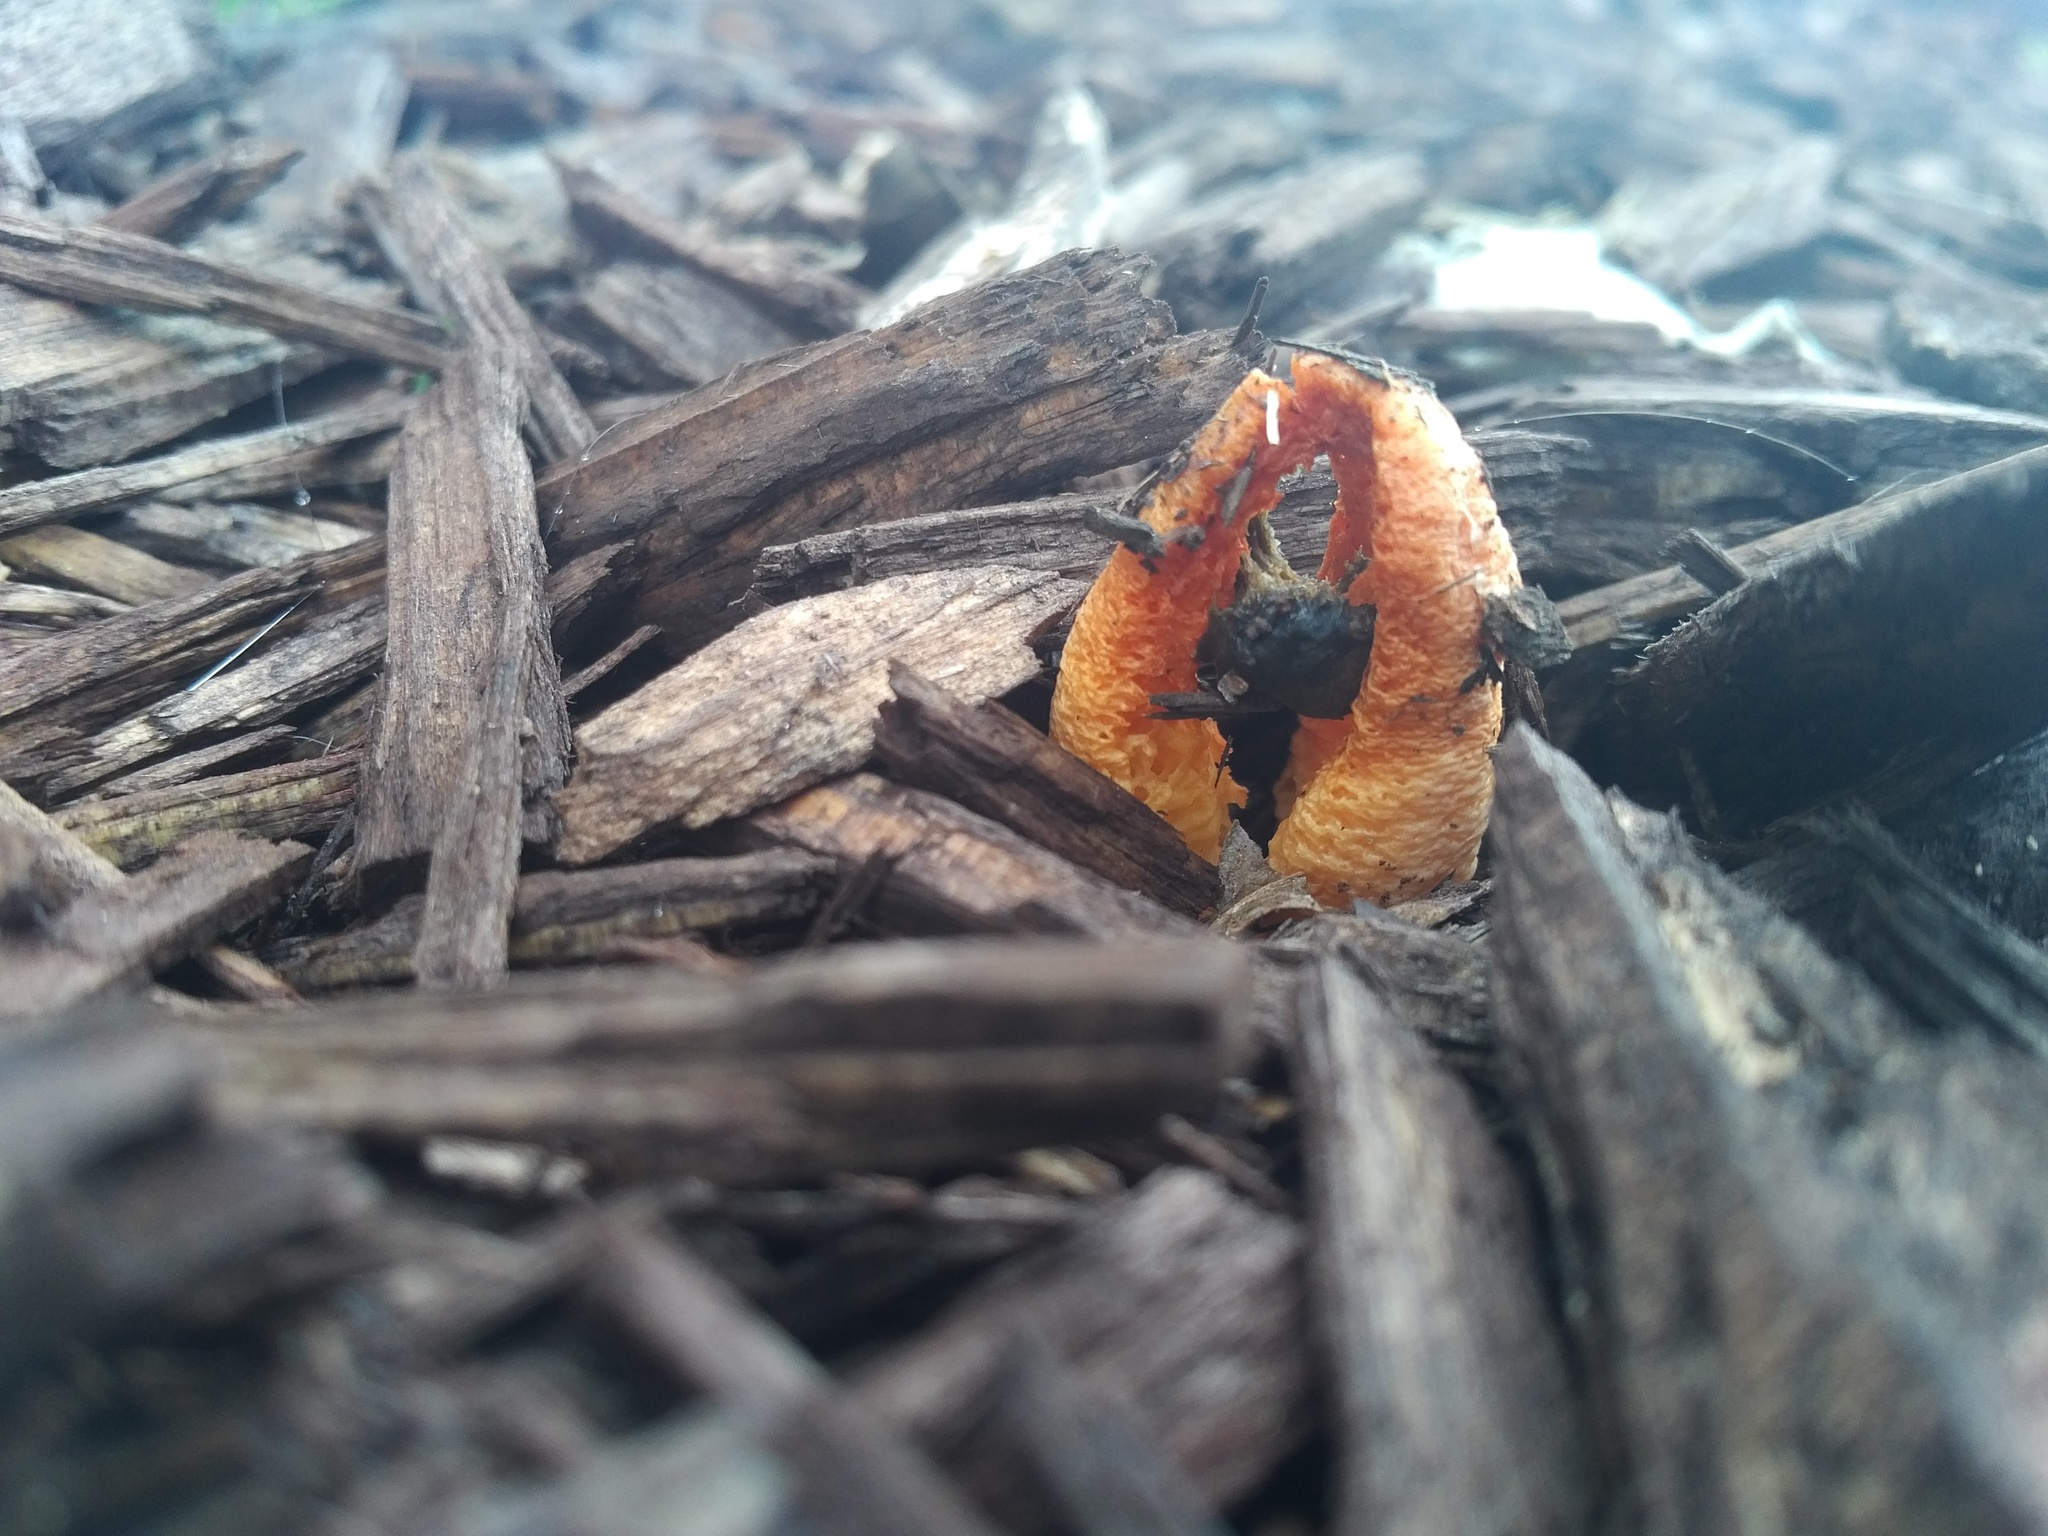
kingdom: Fungi
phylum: Basidiomycota
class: Agaricomycetes
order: Phallales
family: Phallaceae
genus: Clathrus
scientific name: Clathrus columnatus
